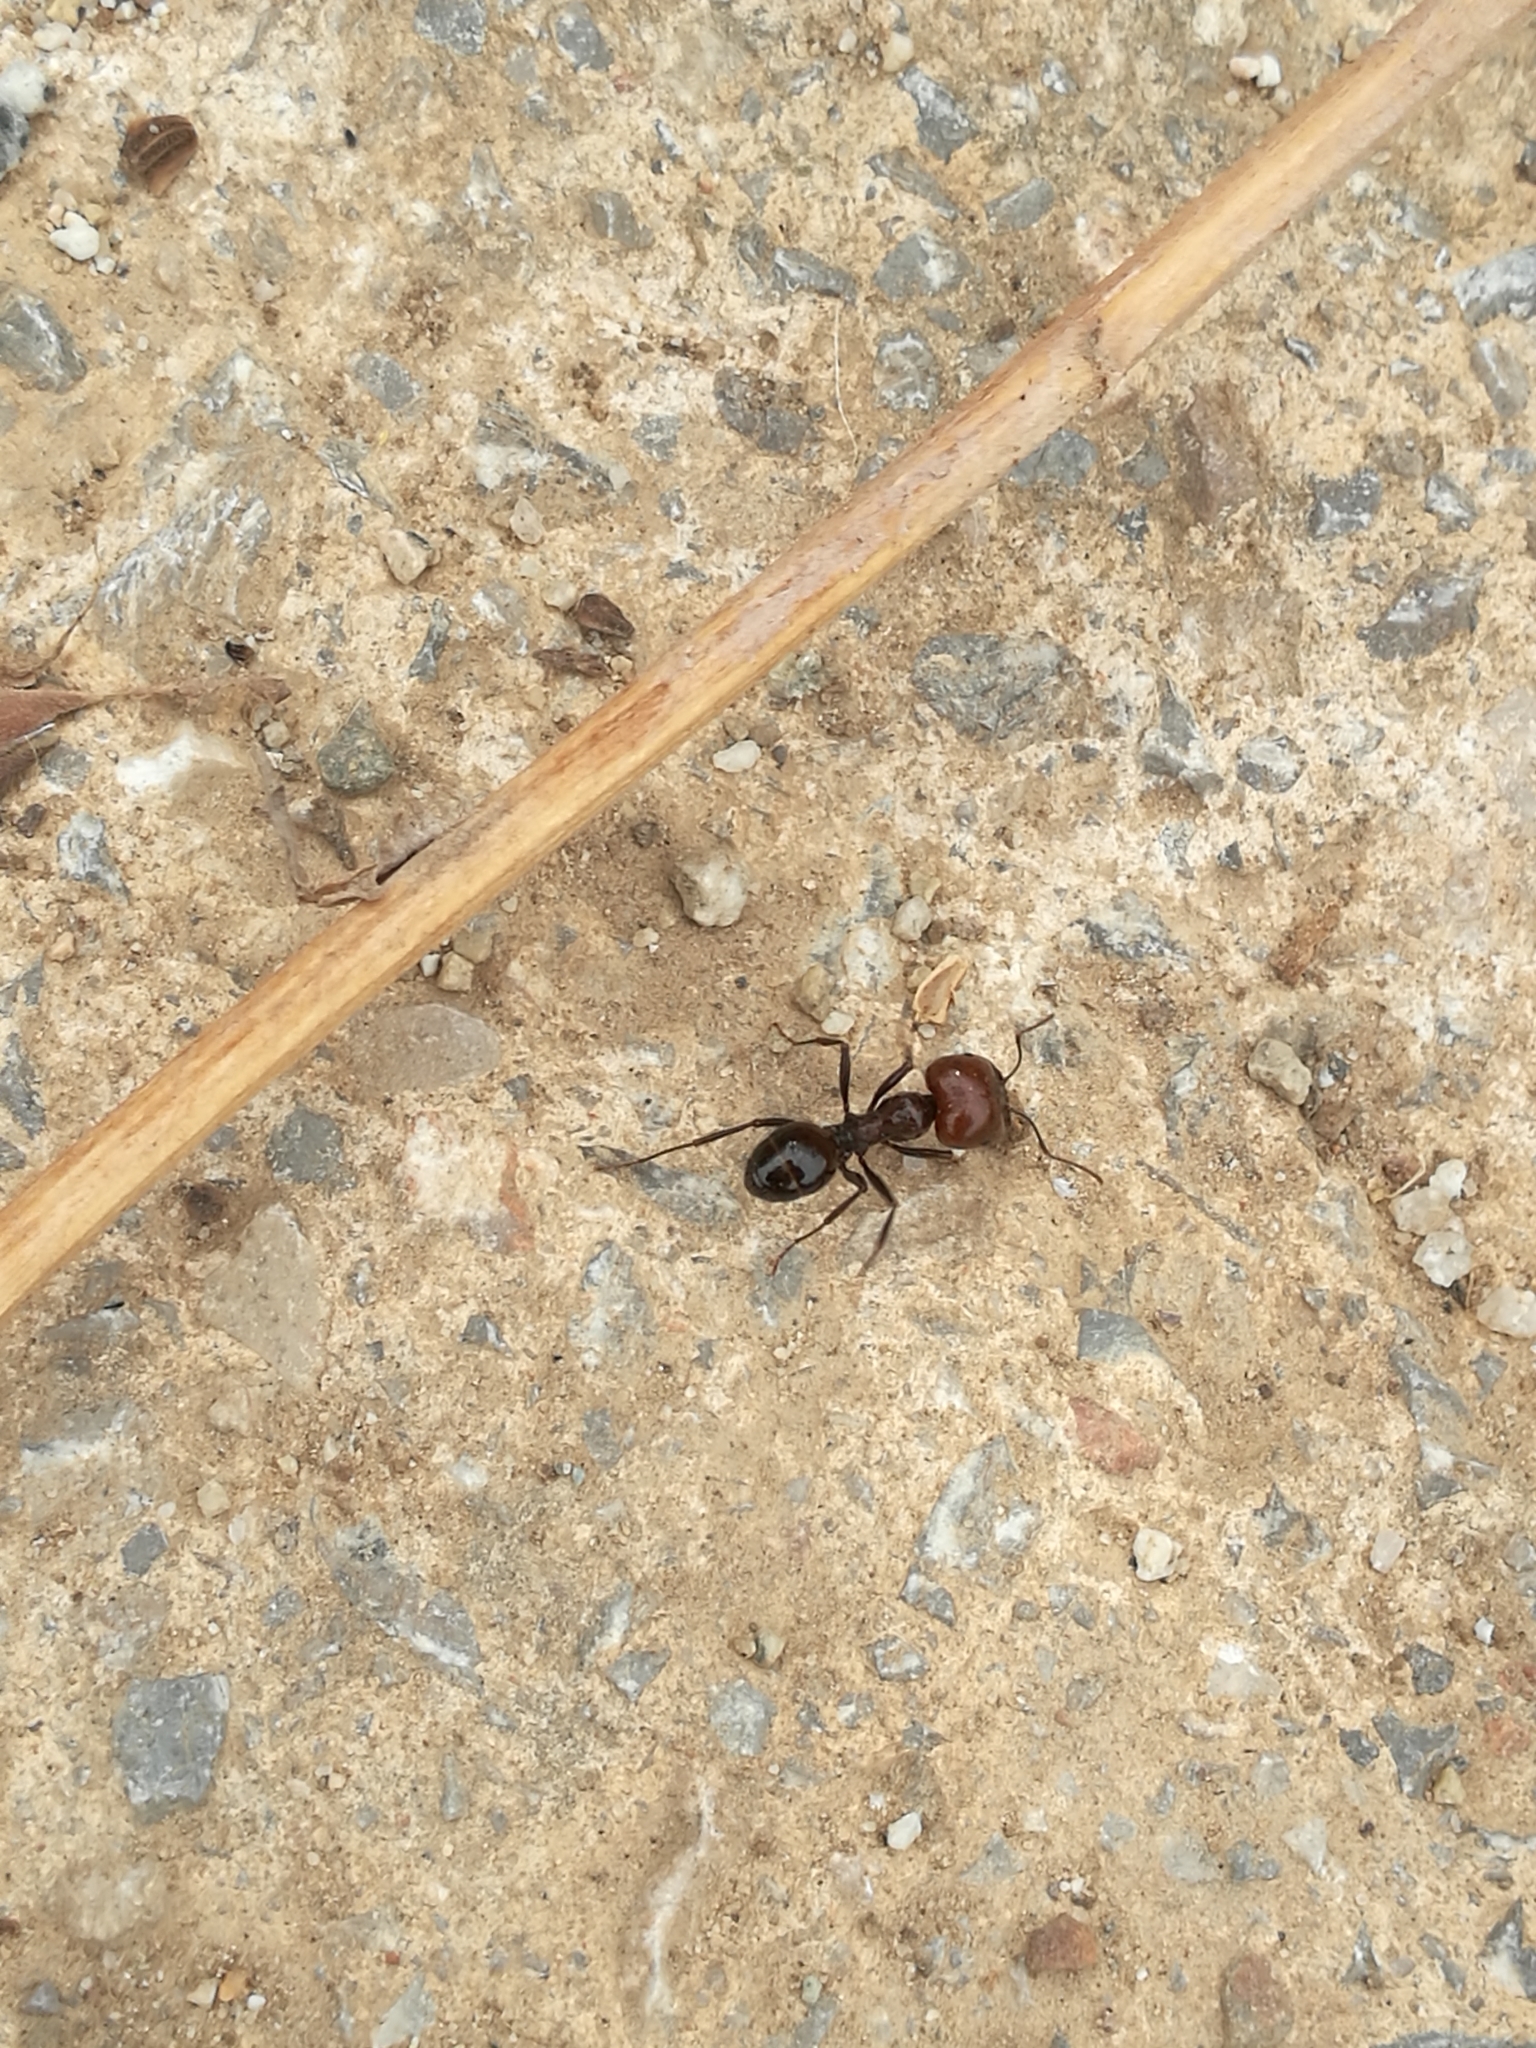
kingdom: Animalia
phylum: Arthropoda
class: Insecta
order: Hymenoptera
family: Formicidae
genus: Messor
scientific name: Messor barbarus
